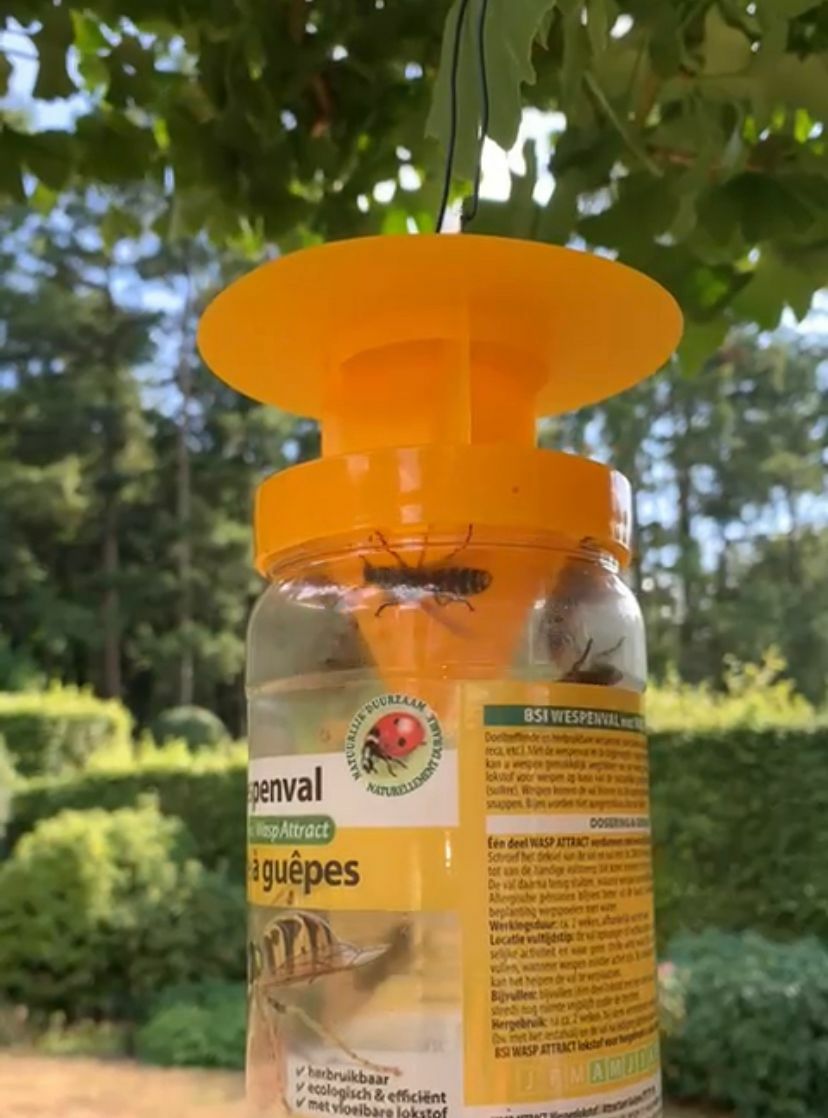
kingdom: Animalia
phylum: Arthropoda
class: Insecta
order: Hymenoptera
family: Vespidae
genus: Vespa
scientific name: Vespa crabro
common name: Hornet
